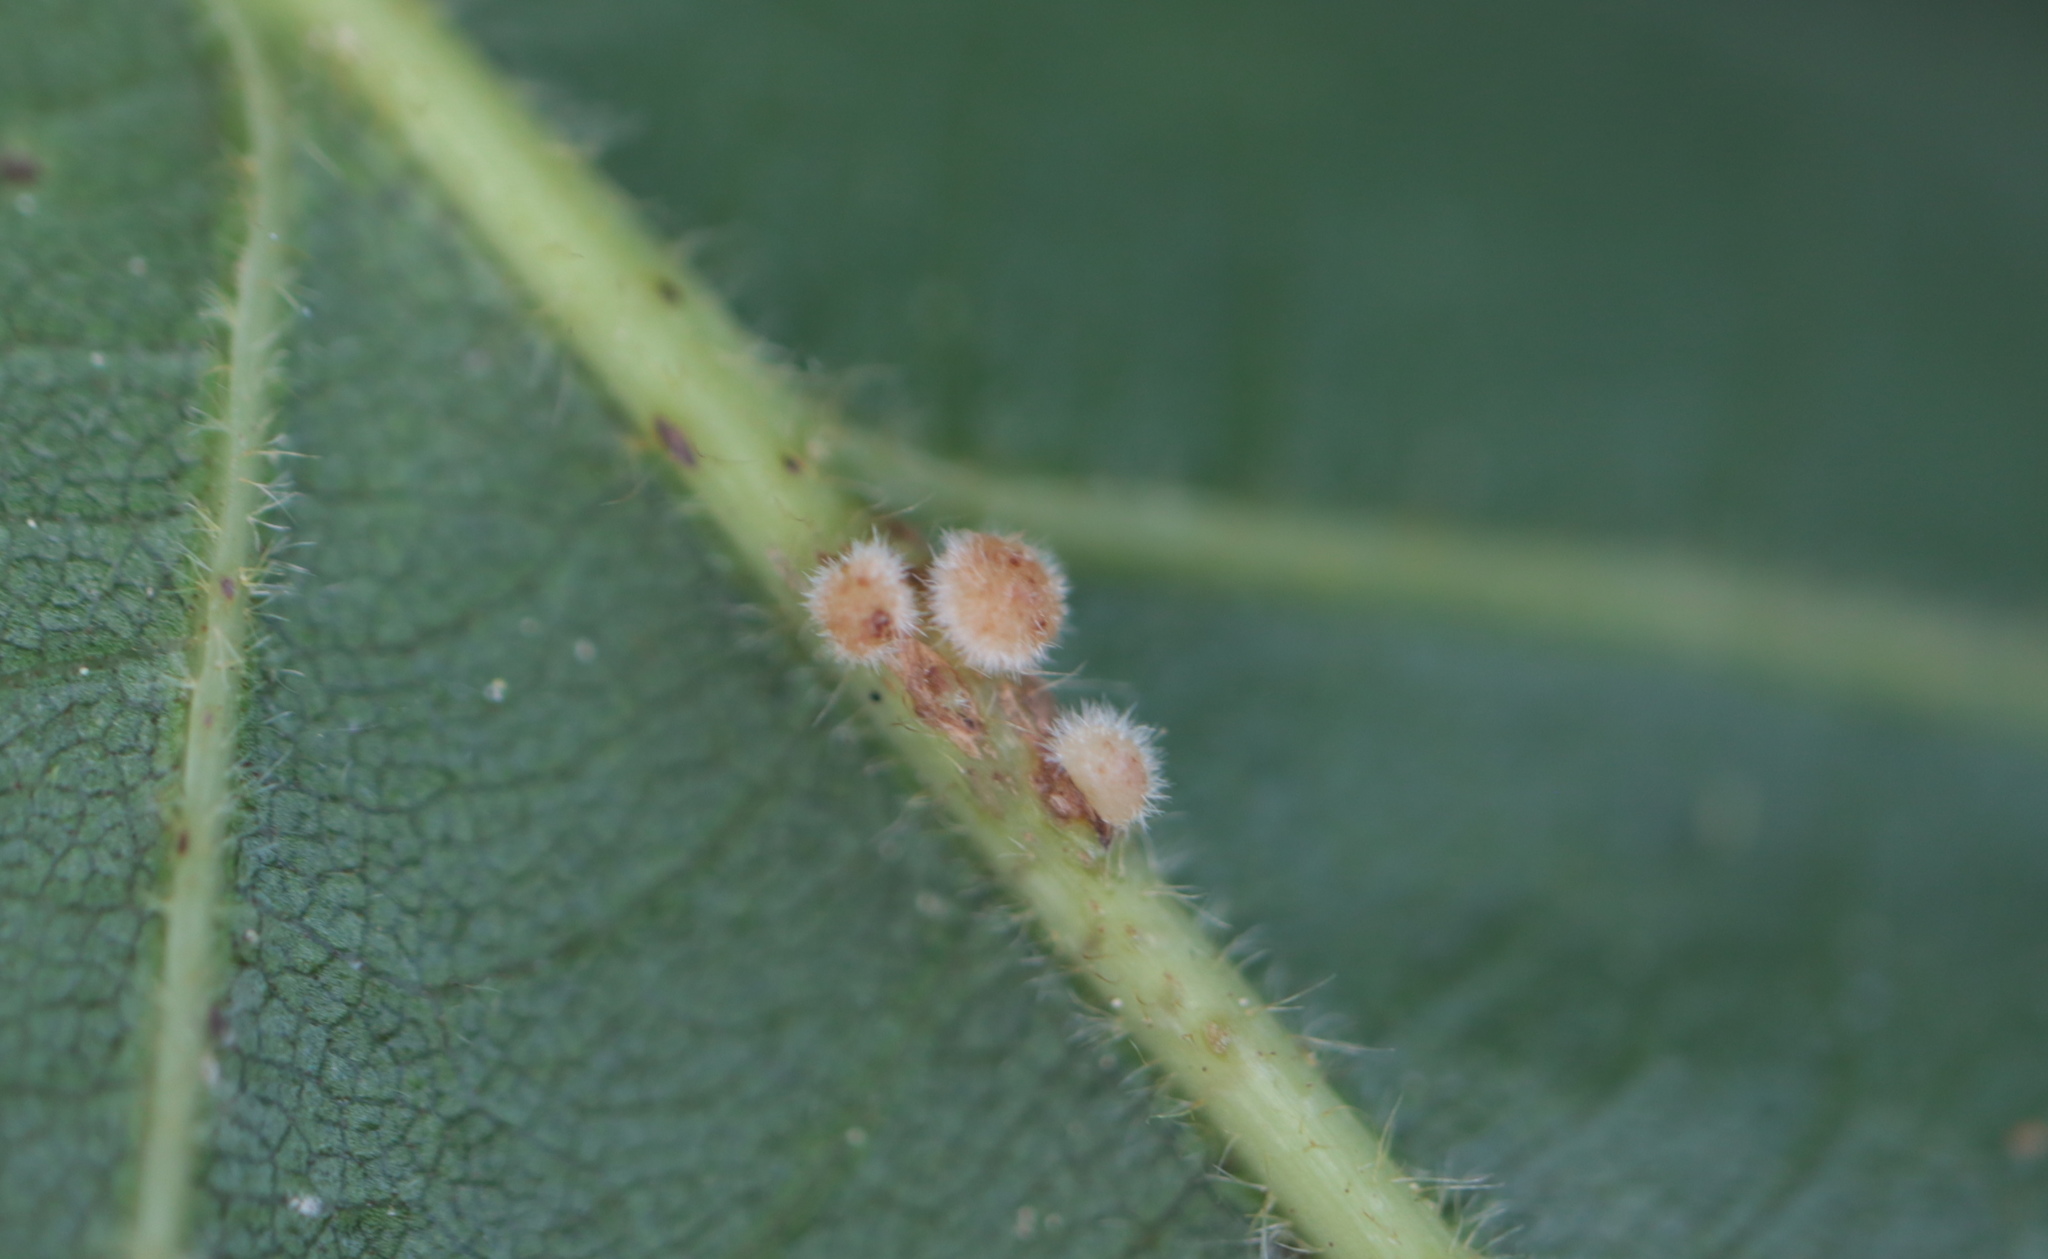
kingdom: Animalia
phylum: Arthropoda
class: Insecta
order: Hymenoptera
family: Cynipidae
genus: Andricus
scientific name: Andricus
